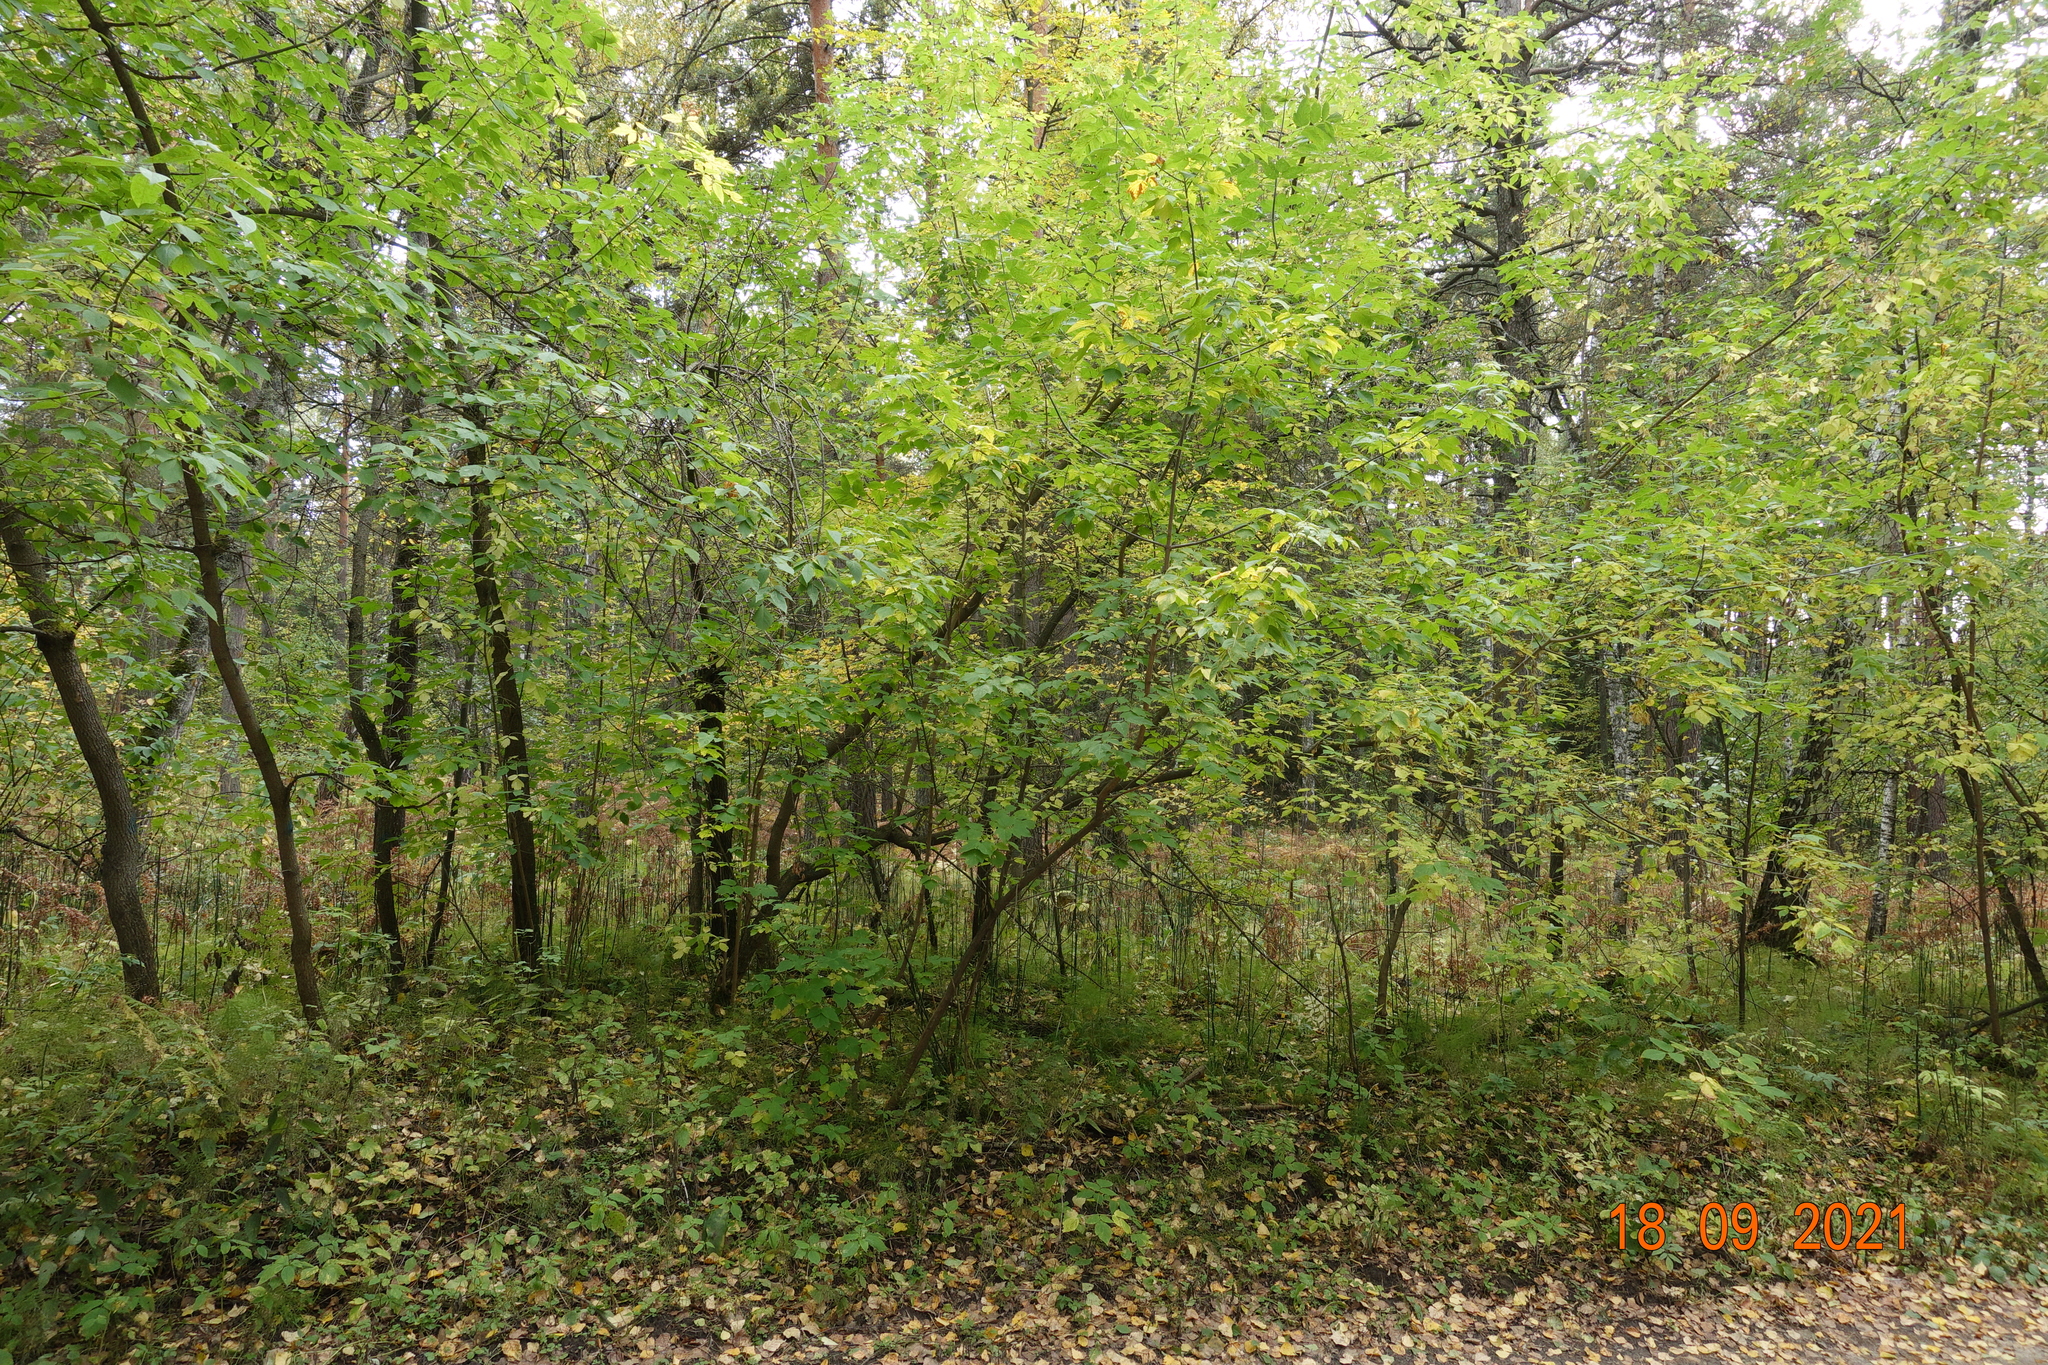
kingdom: Plantae
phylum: Tracheophyta
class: Magnoliopsida
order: Sapindales
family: Sapindaceae
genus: Acer
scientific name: Acer negundo
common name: Ashleaf maple
